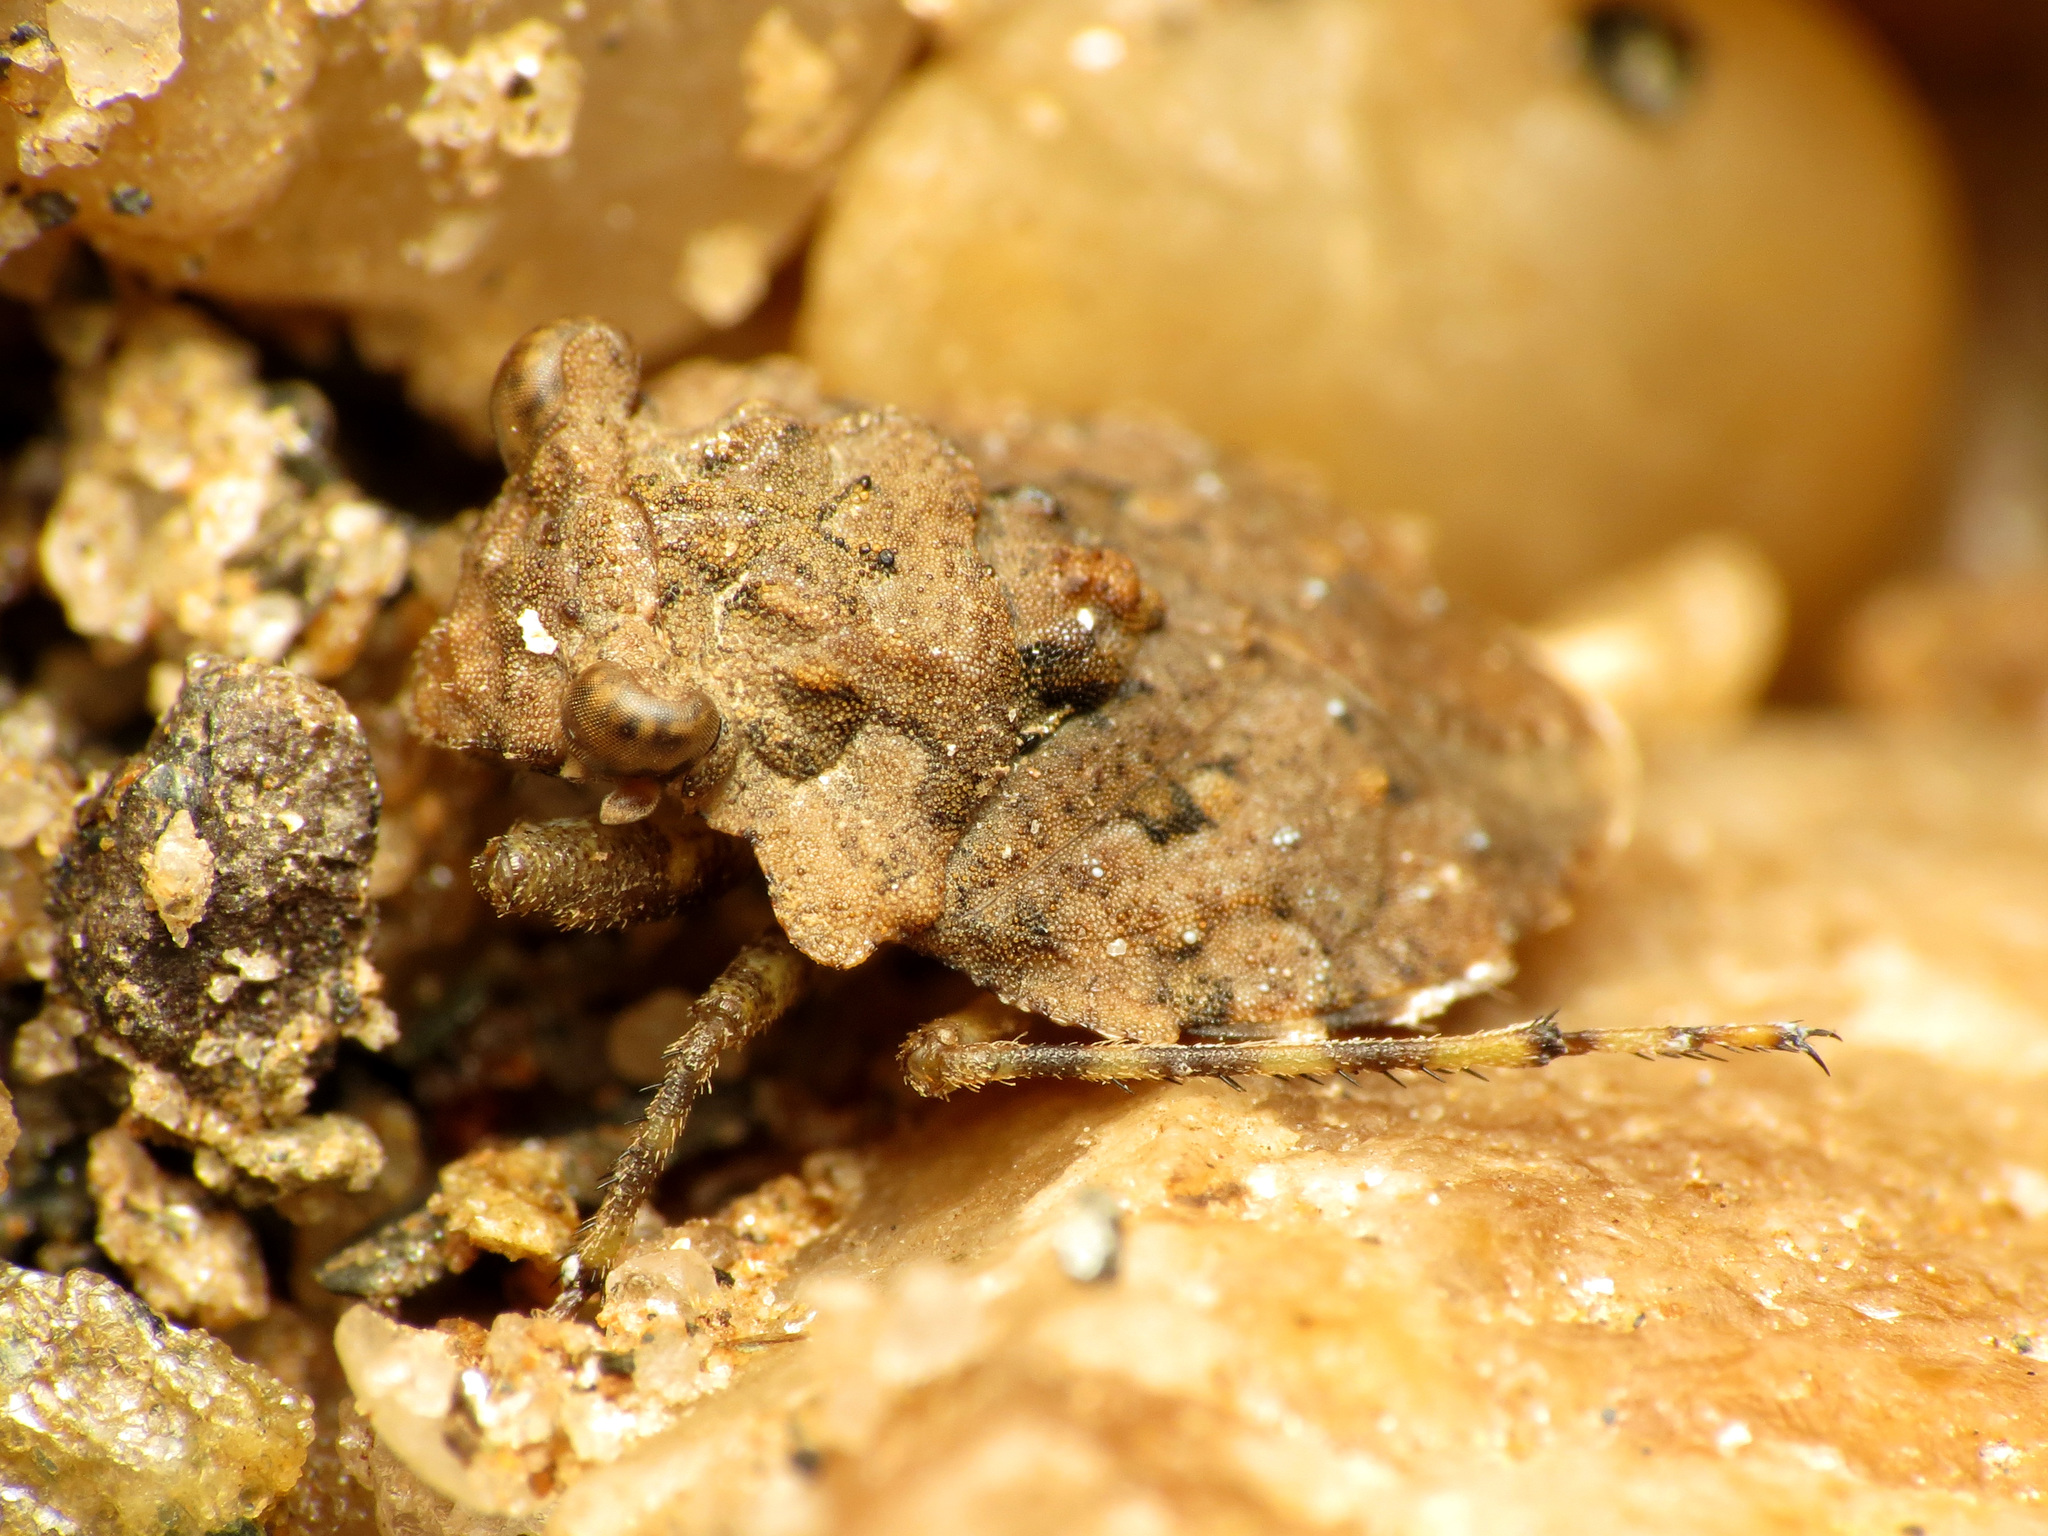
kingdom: Animalia
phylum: Arthropoda
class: Insecta
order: Hemiptera
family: Gelastocoridae
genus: Gelastocoris
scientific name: Gelastocoris oculatus
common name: Toad bug
